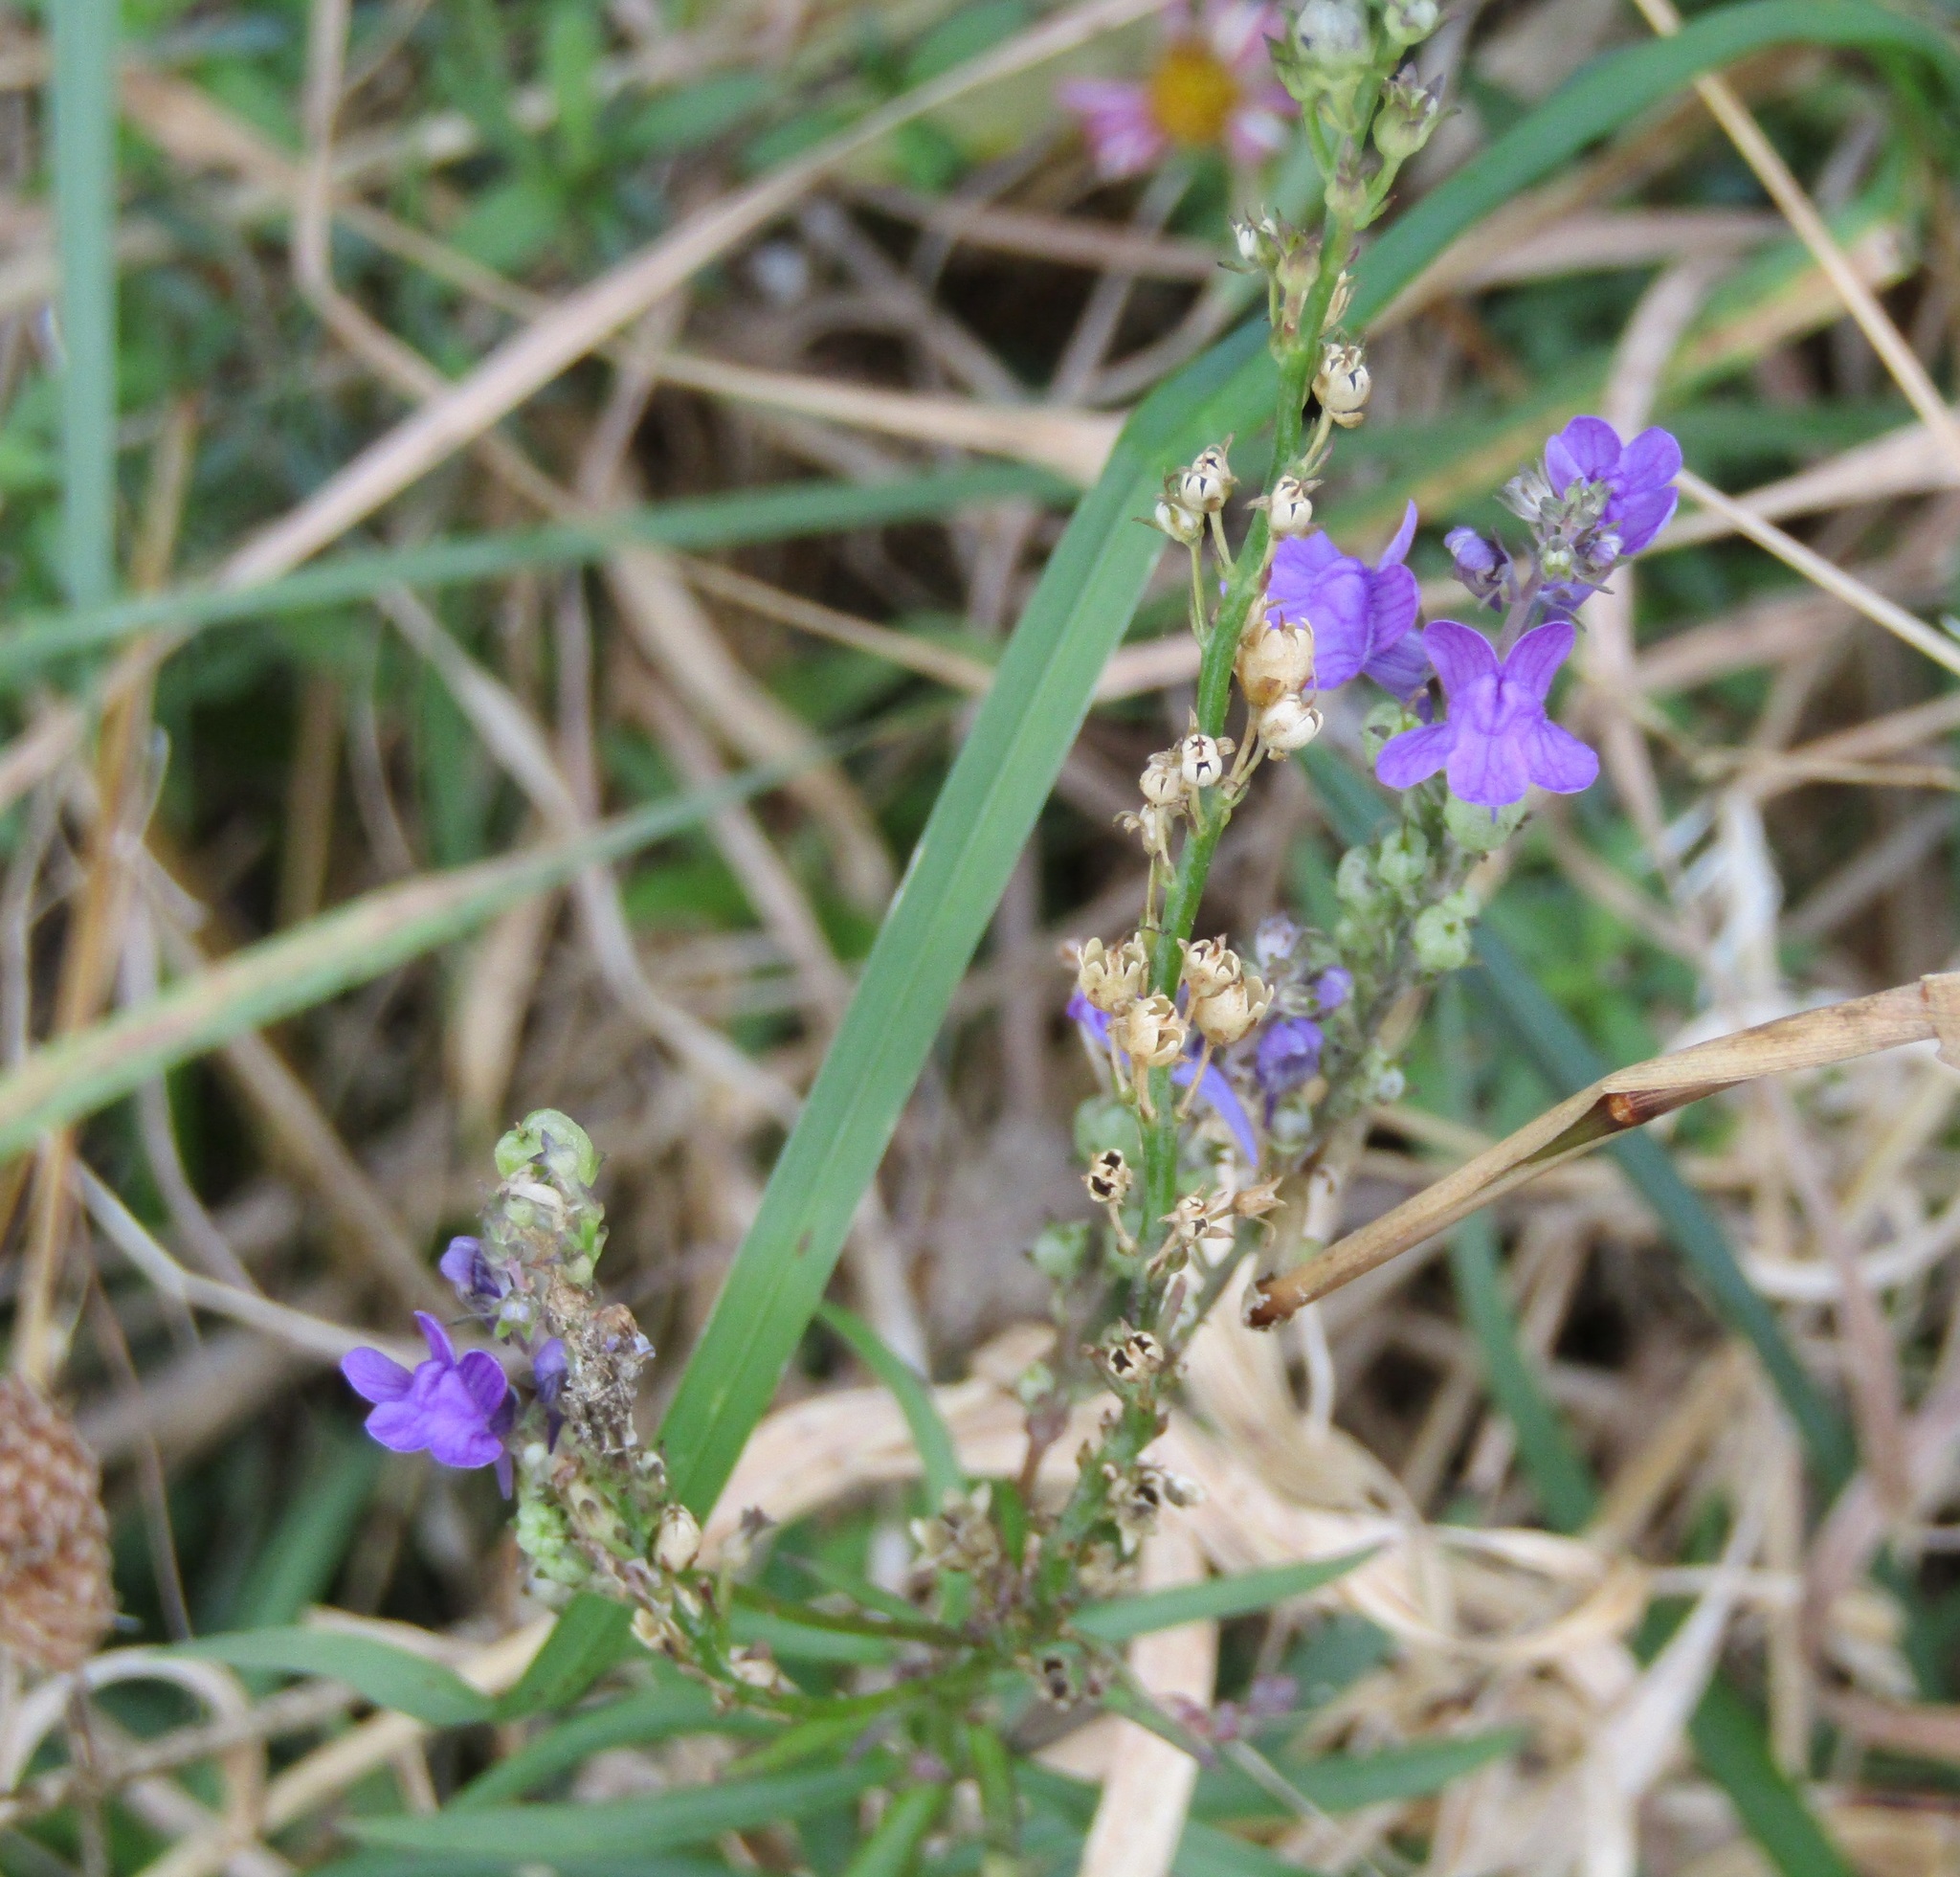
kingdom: Plantae
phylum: Tracheophyta
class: Magnoliopsida
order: Lamiales
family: Plantaginaceae
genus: Linaria
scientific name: Linaria purpurea
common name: Purple toadflax
